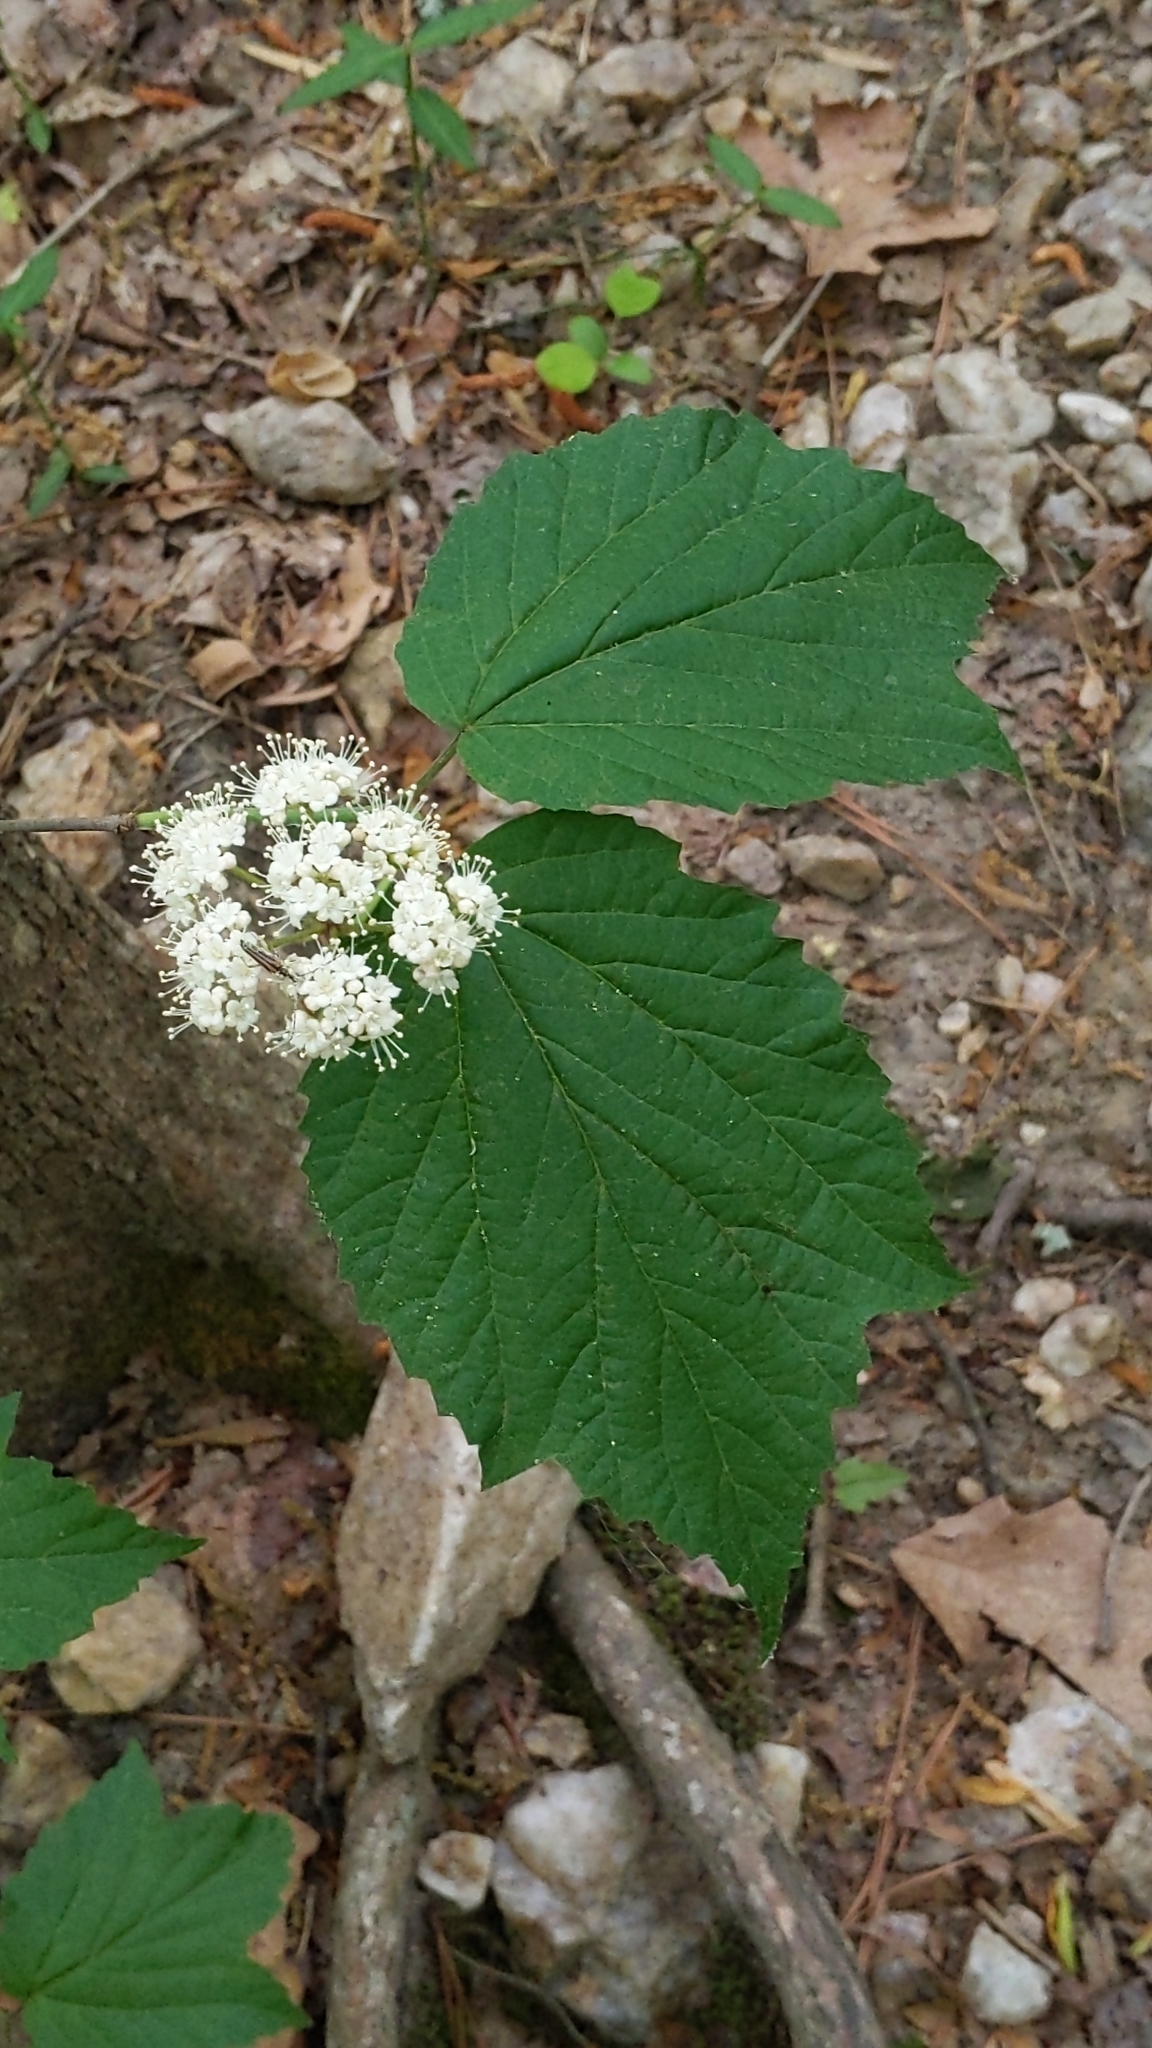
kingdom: Plantae
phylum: Tracheophyta
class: Magnoliopsida
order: Dipsacales
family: Viburnaceae
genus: Viburnum
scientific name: Viburnum acerifolium
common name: Dockmackie
